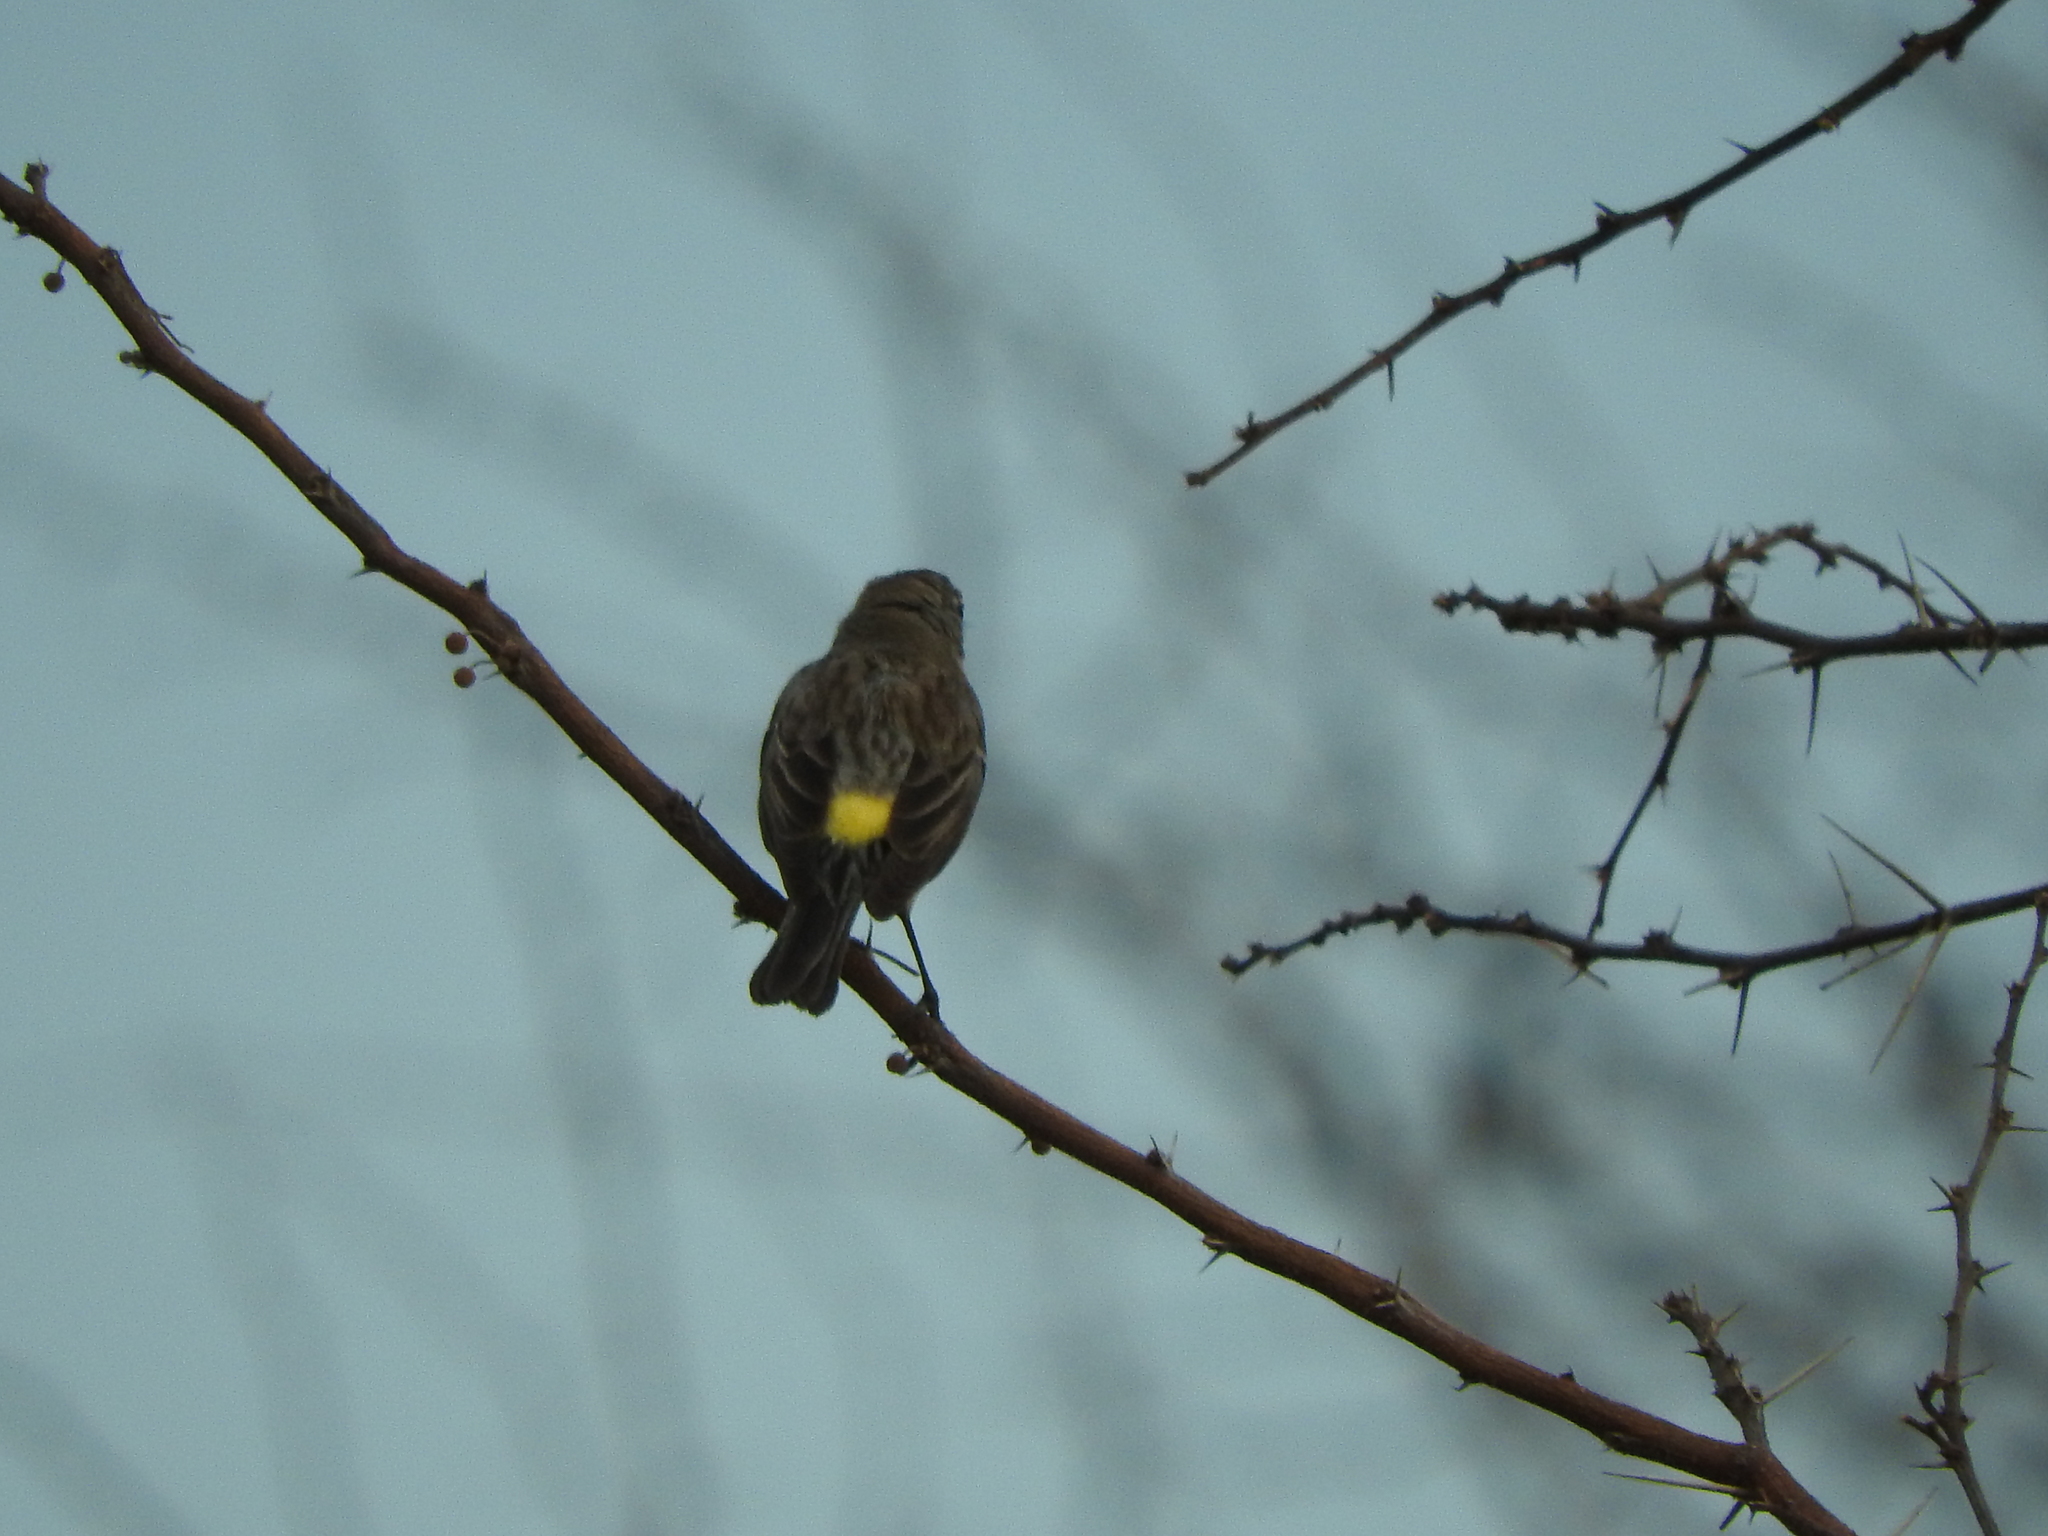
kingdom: Animalia
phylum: Chordata
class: Aves
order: Passeriformes
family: Parulidae
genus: Setophaga
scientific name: Setophaga coronata
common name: Myrtle warbler
